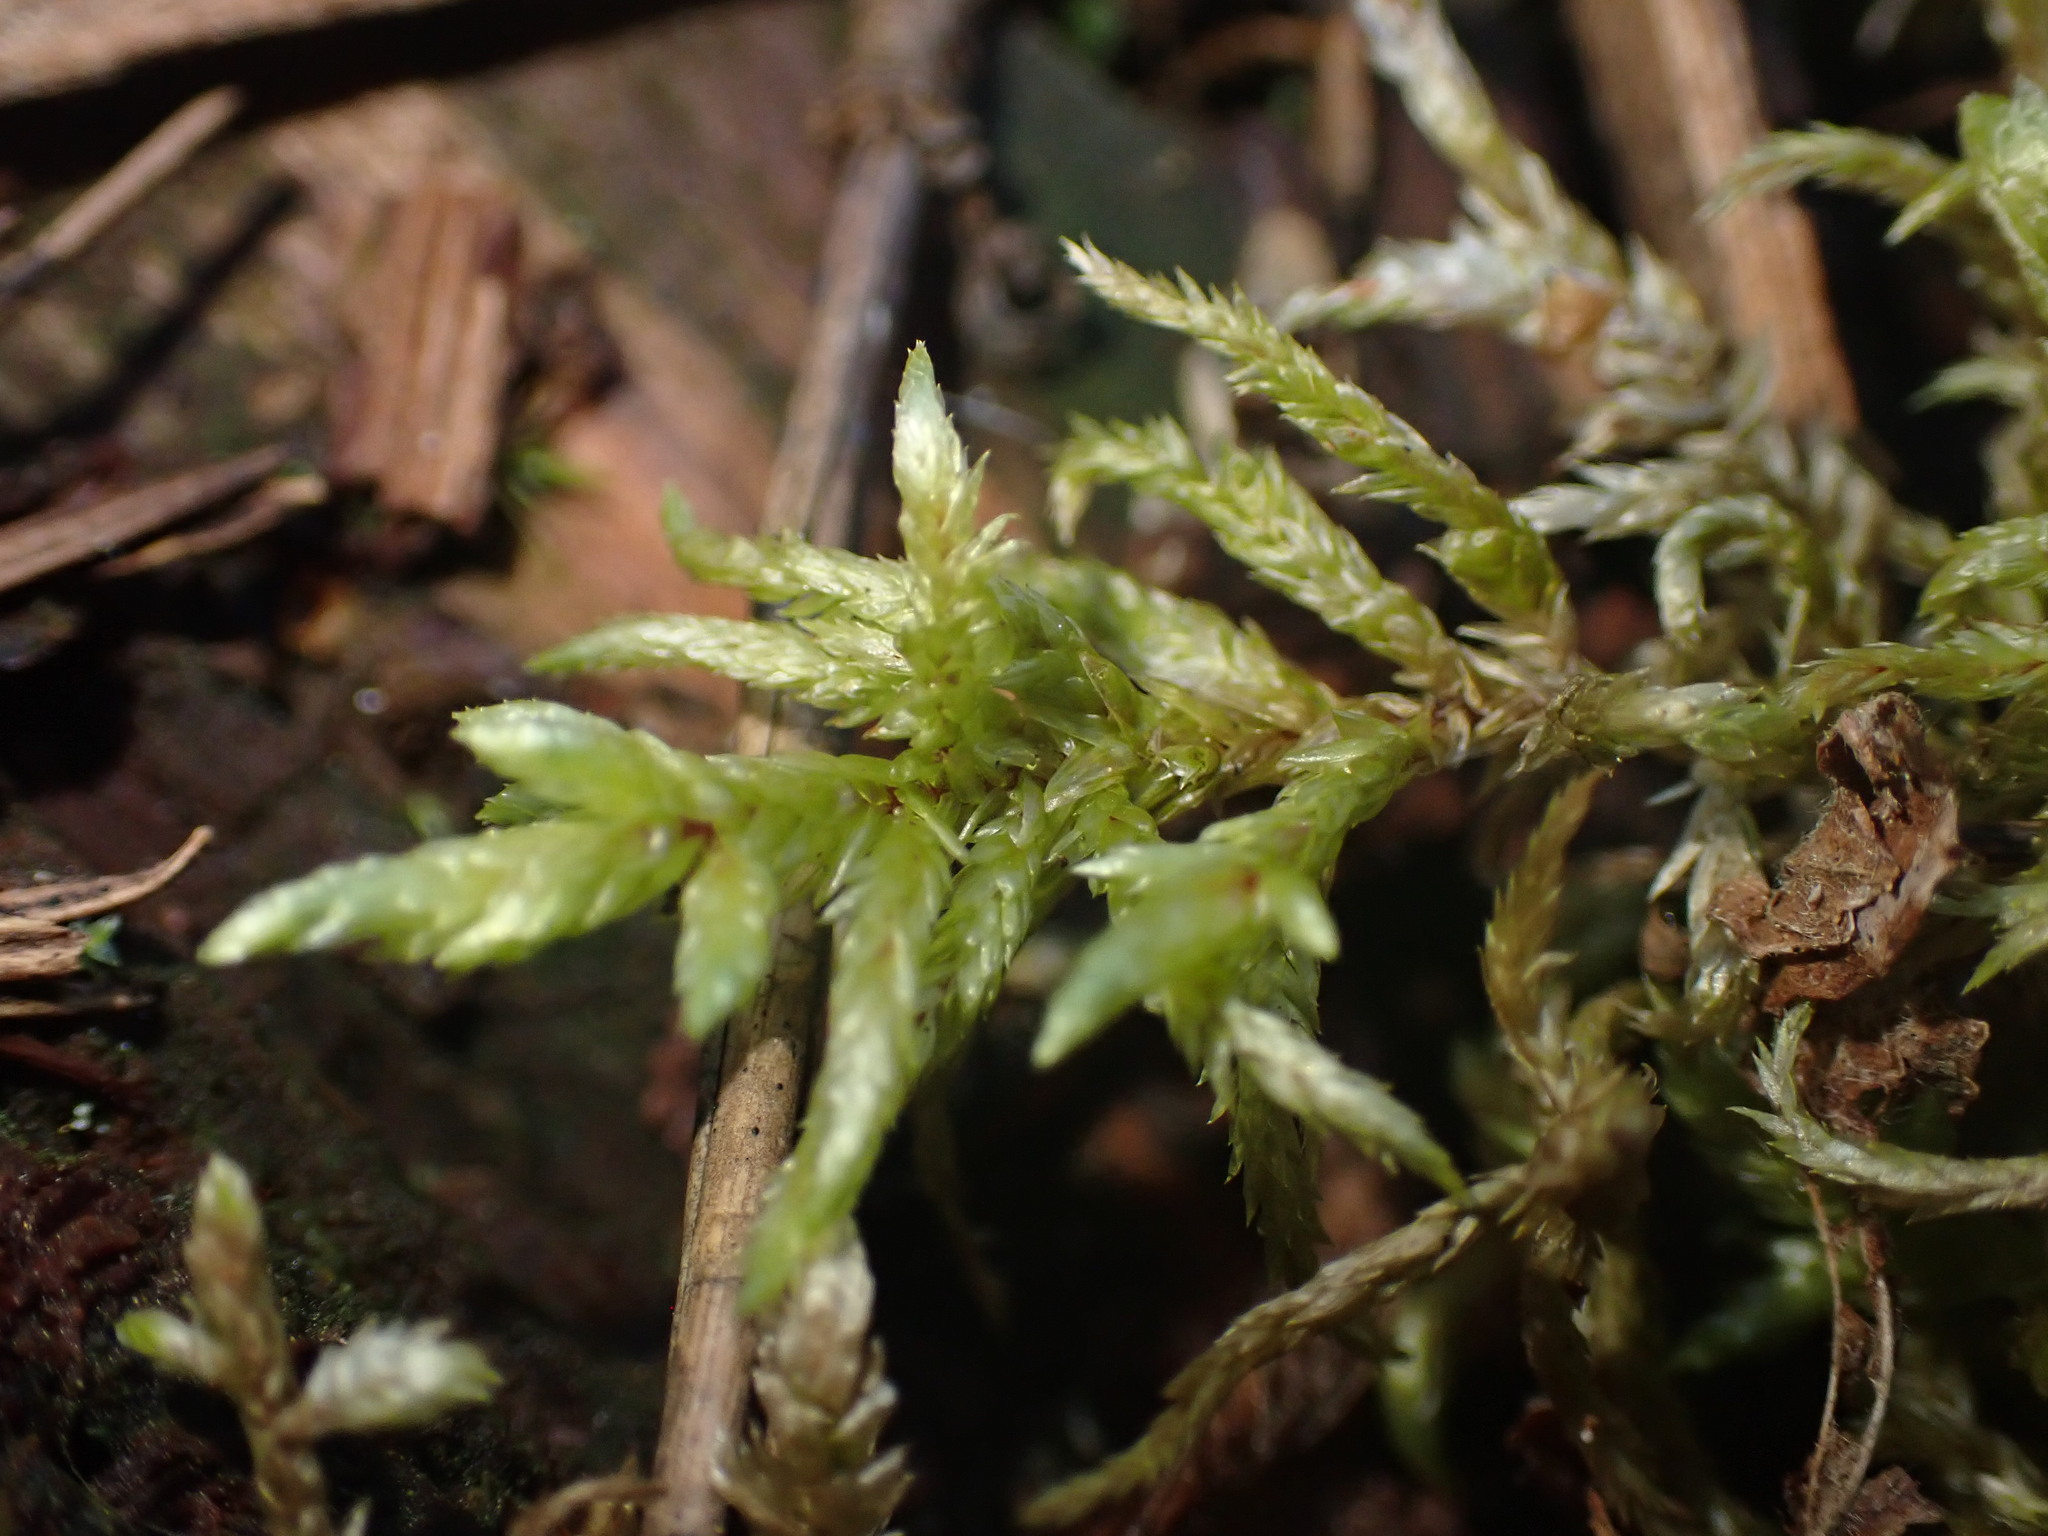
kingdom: Plantae
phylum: Bryophyta
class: Bryopsida
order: Hypnales
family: Hylocomiaceae
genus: Pleurozium
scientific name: Pleurozium schreberi
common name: Red-stemmed feather moss
